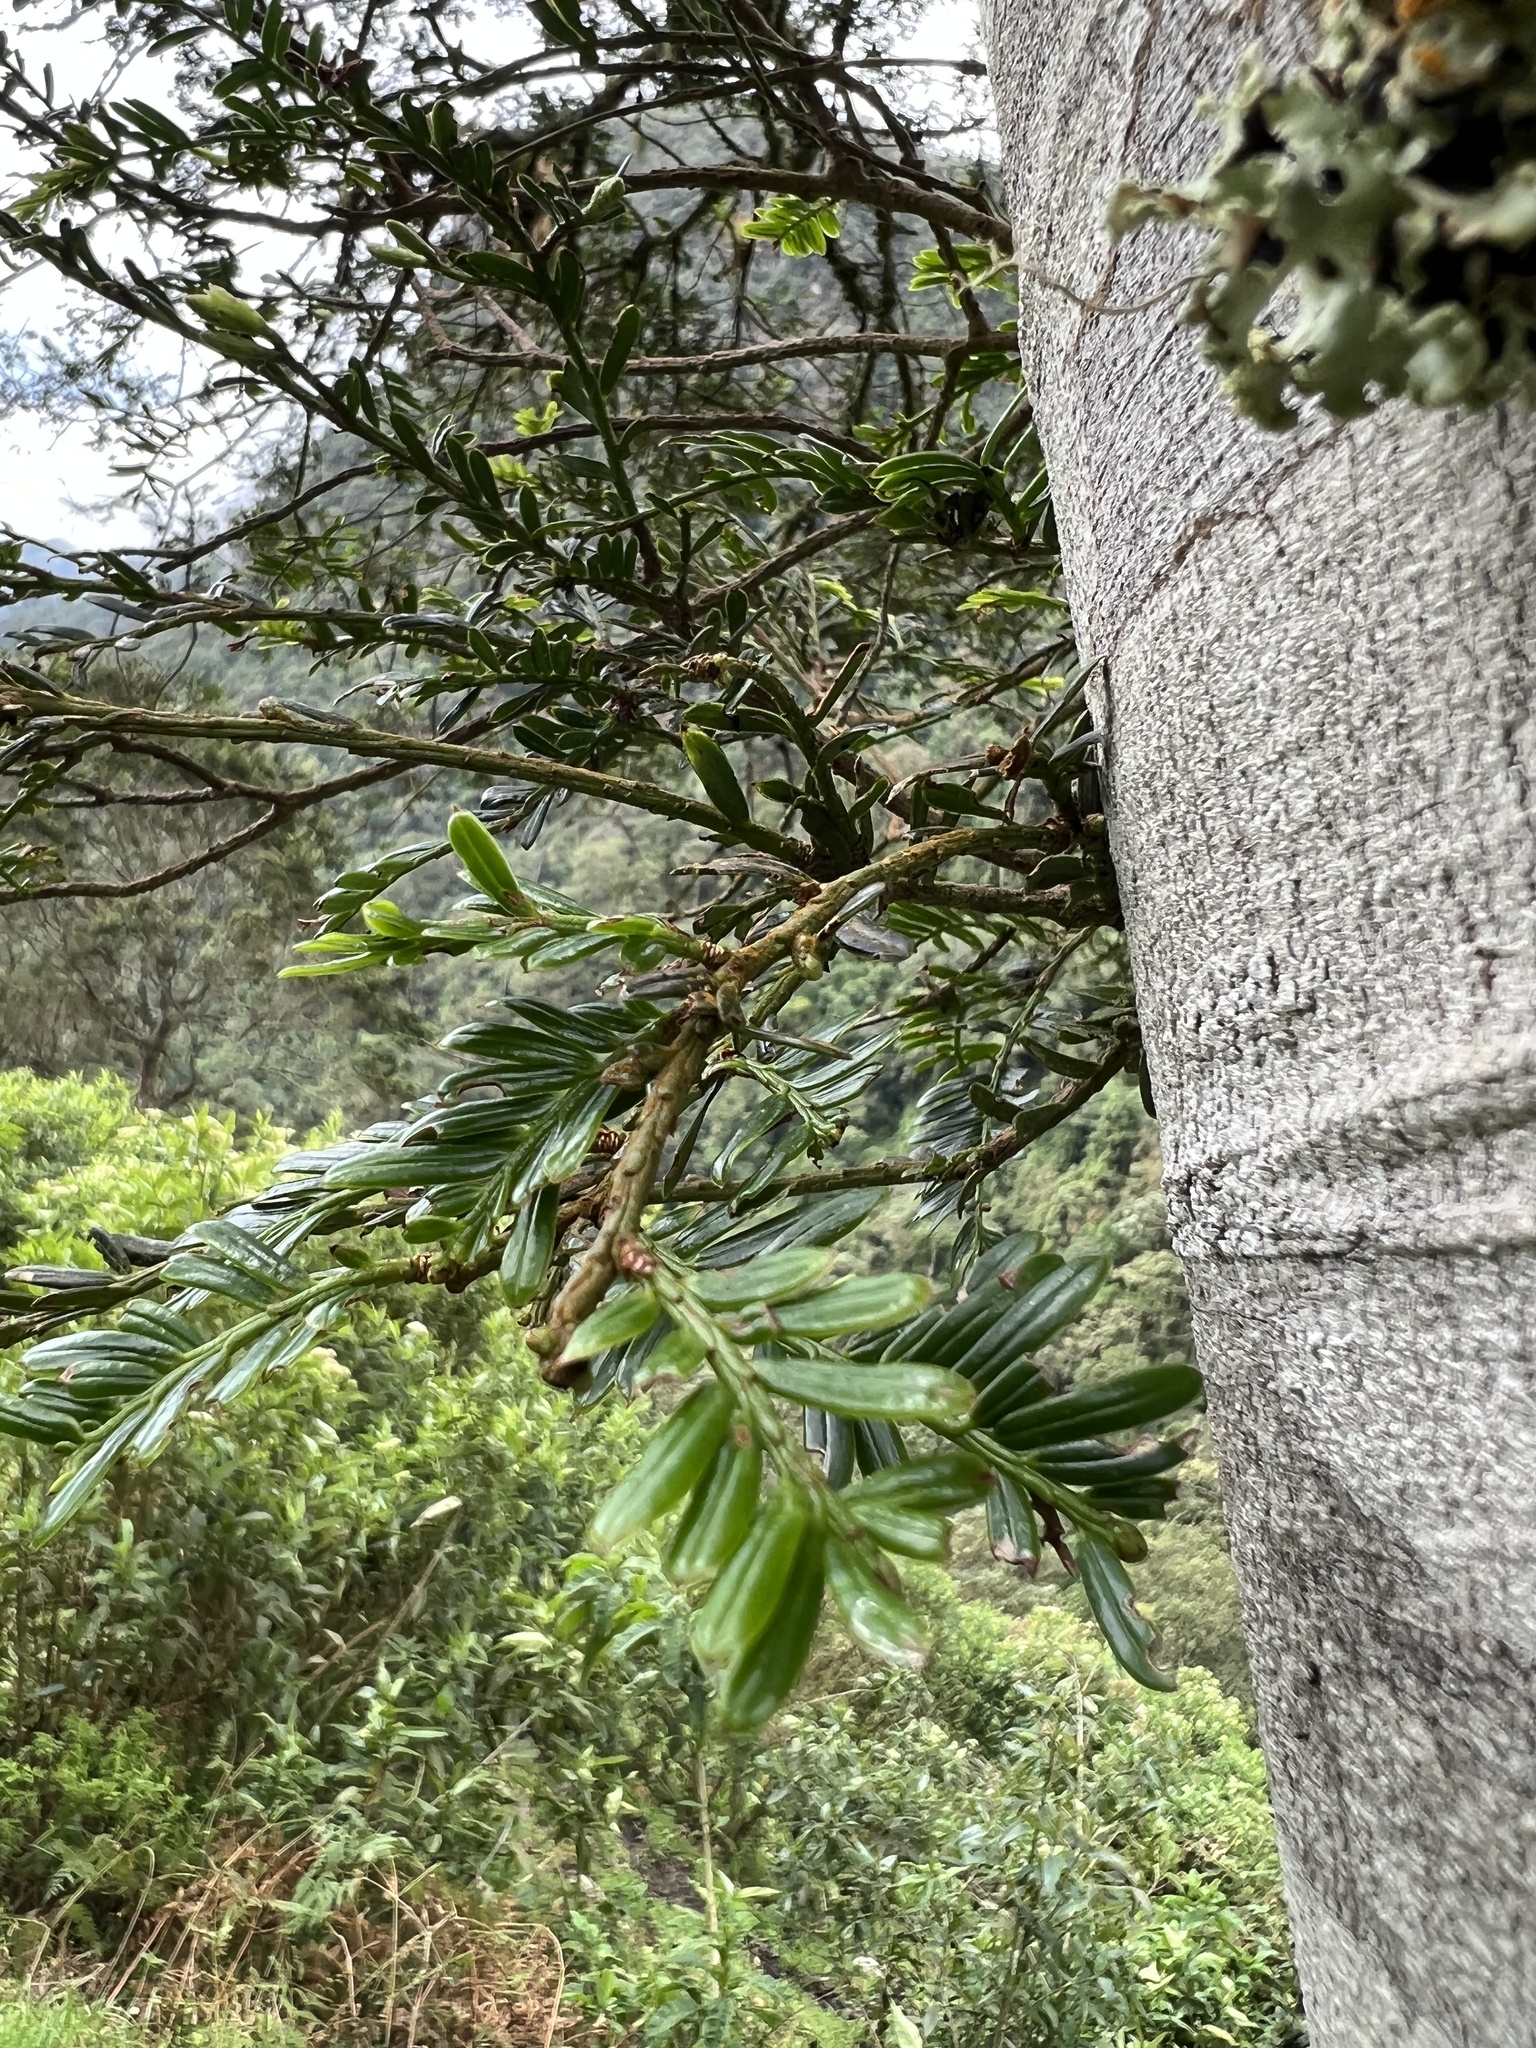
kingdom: Plantae
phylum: Tracheophyta
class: Pinopsida
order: Pinales
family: Podocarpaceae
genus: Prumnopitys
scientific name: Prumnopitys montana
